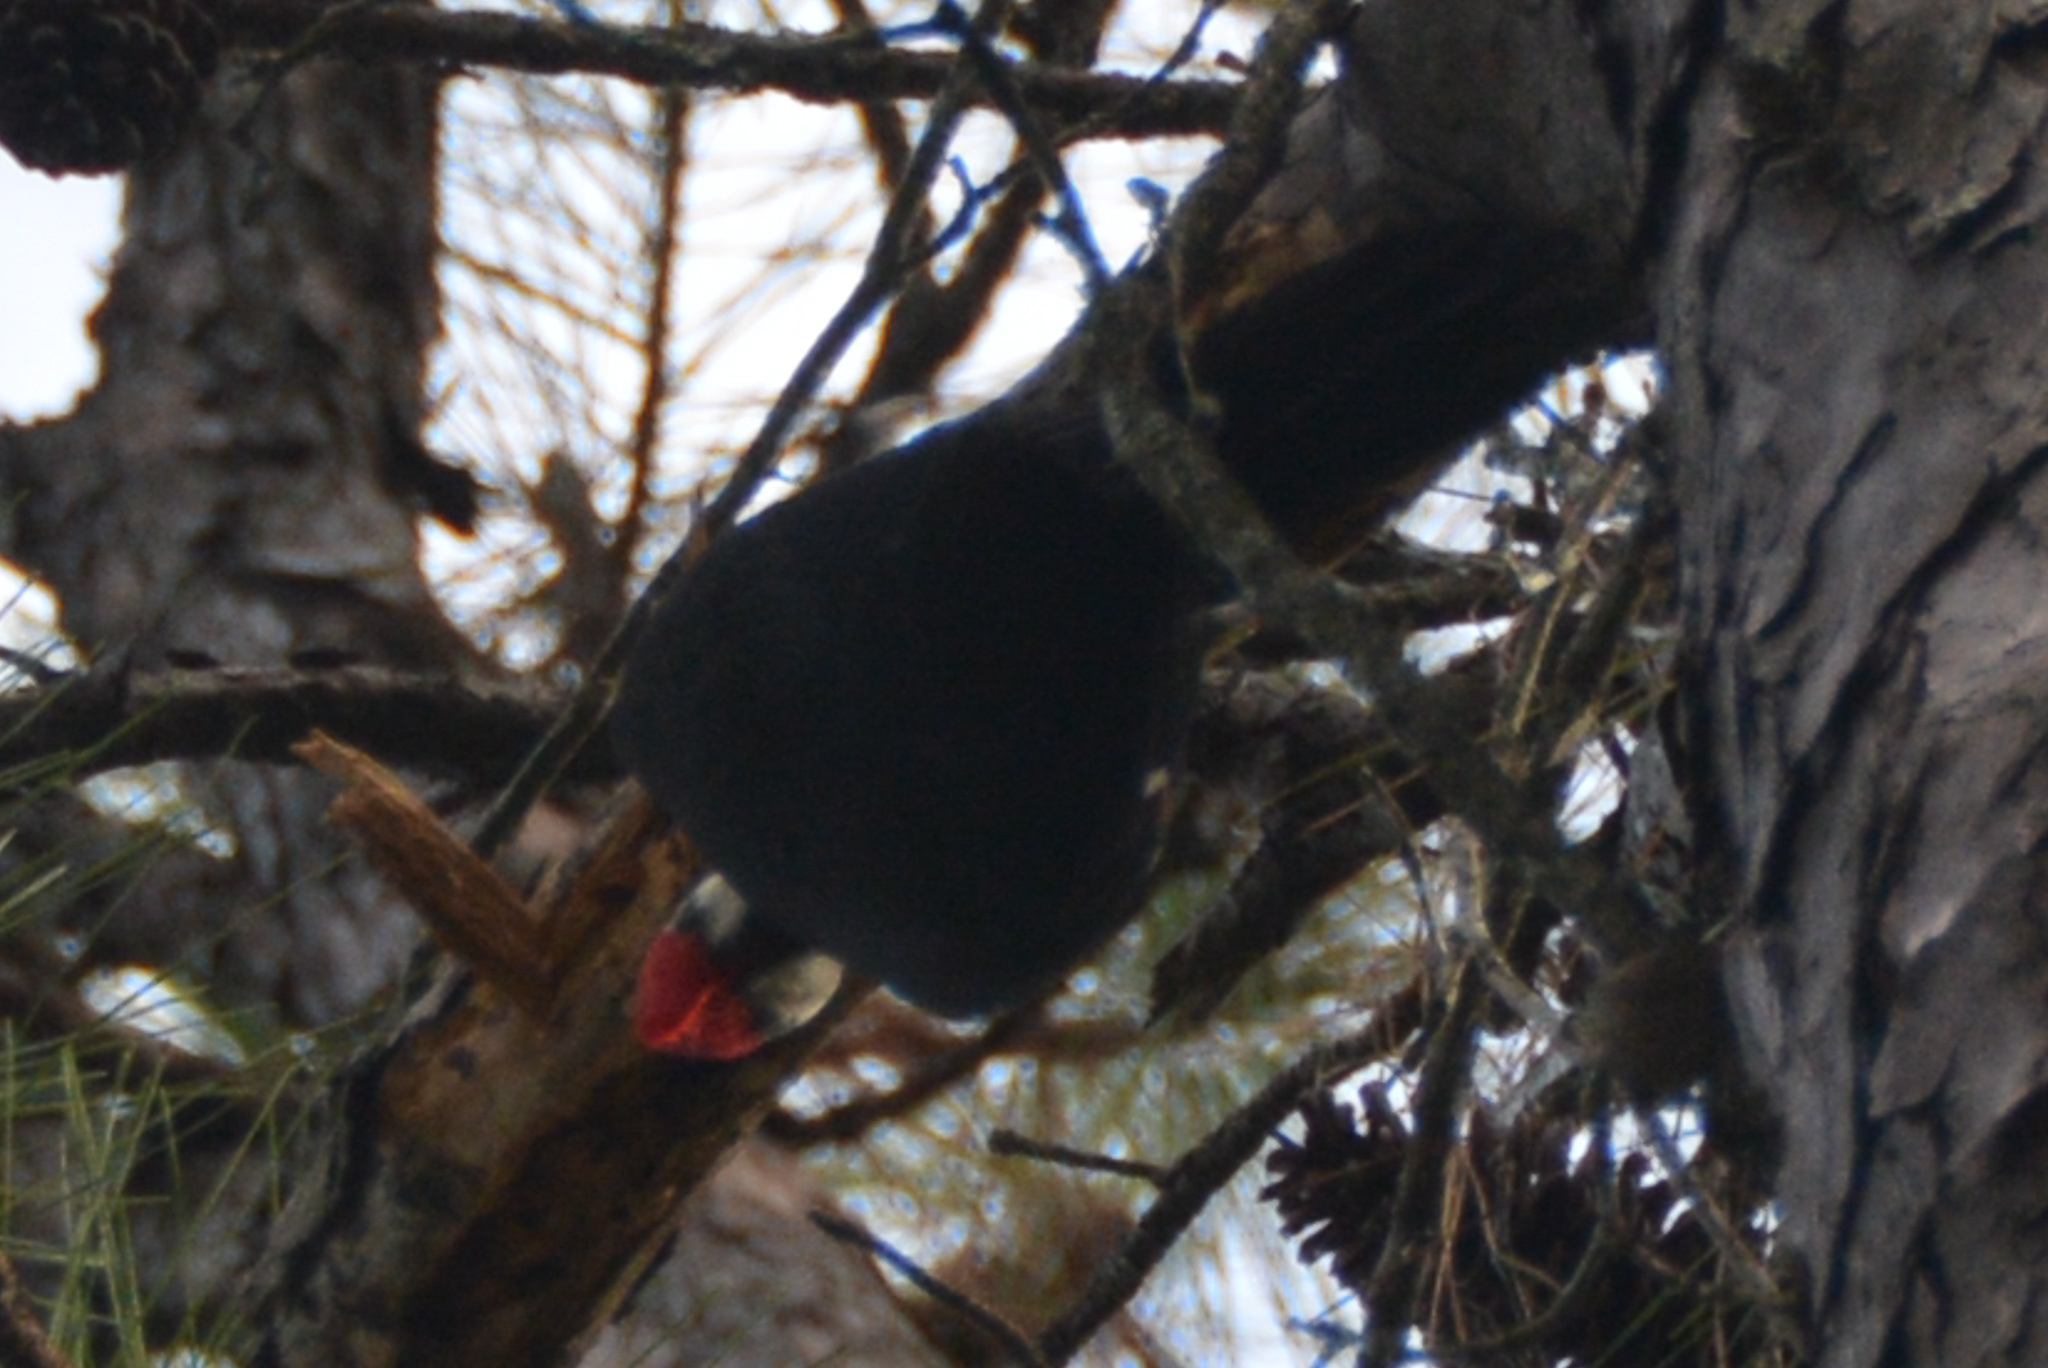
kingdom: Animalia
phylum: Chordata
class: Aves
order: Piciformes
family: Picidae
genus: Dryocopus
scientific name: Dryocopus pileatus
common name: Pileated woodpecker
